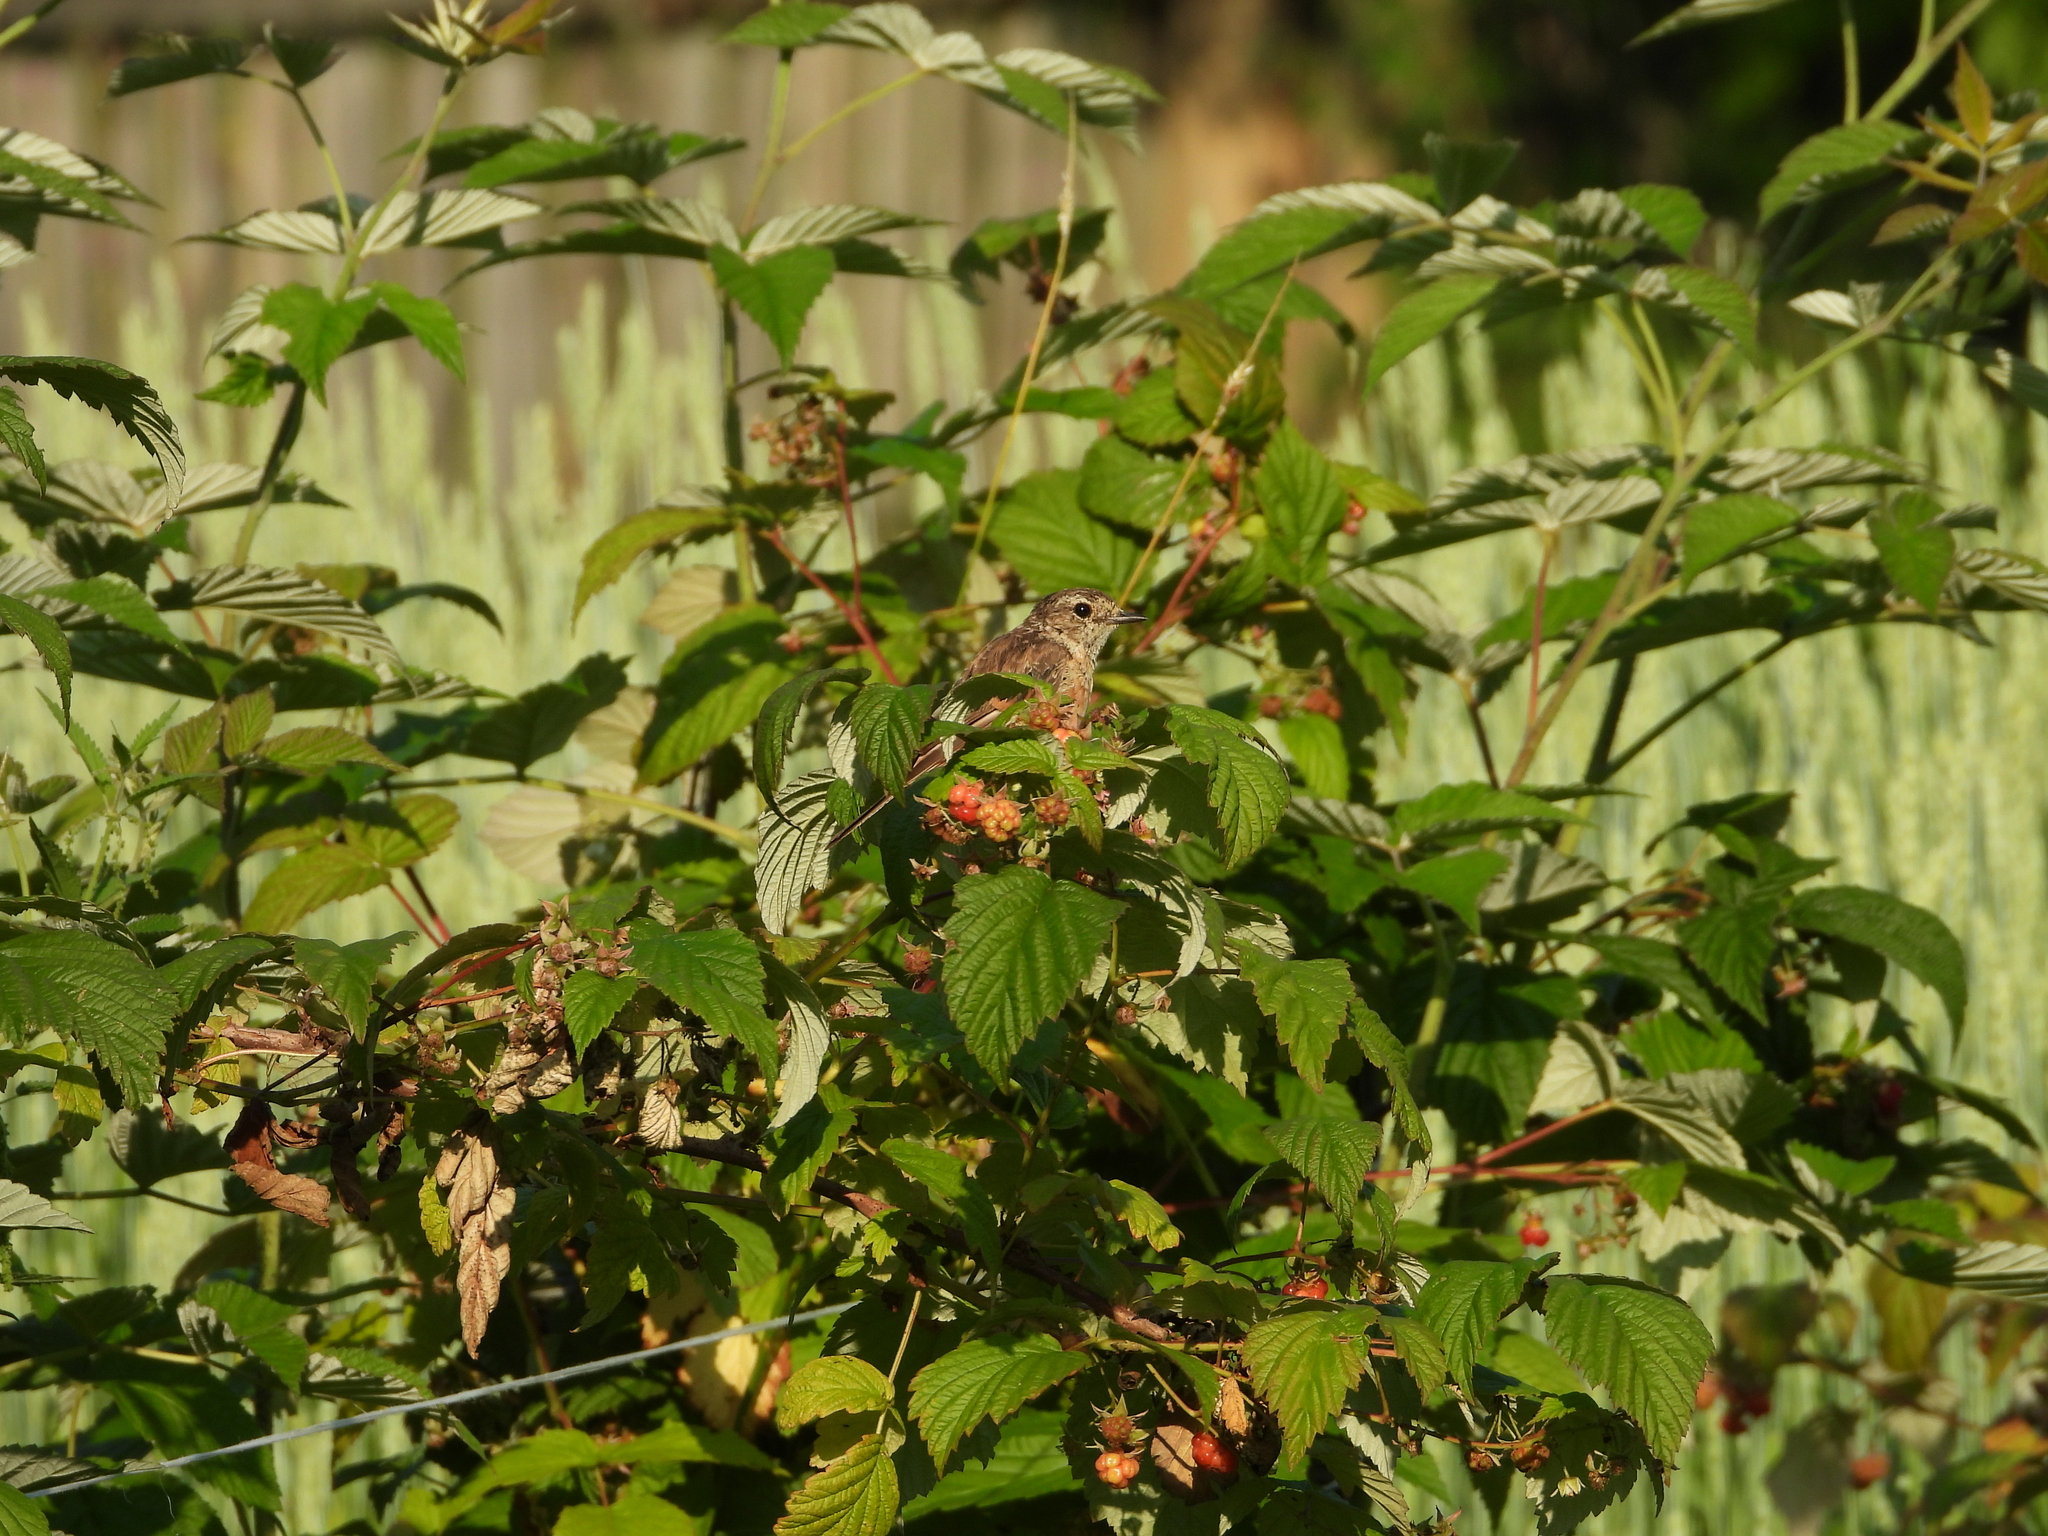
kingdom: Animalia
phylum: Chordata
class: Aves
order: Passeriformes
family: Muscicapidae
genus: Saxicola
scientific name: Saxicola maurus
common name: Siberian stonechat
